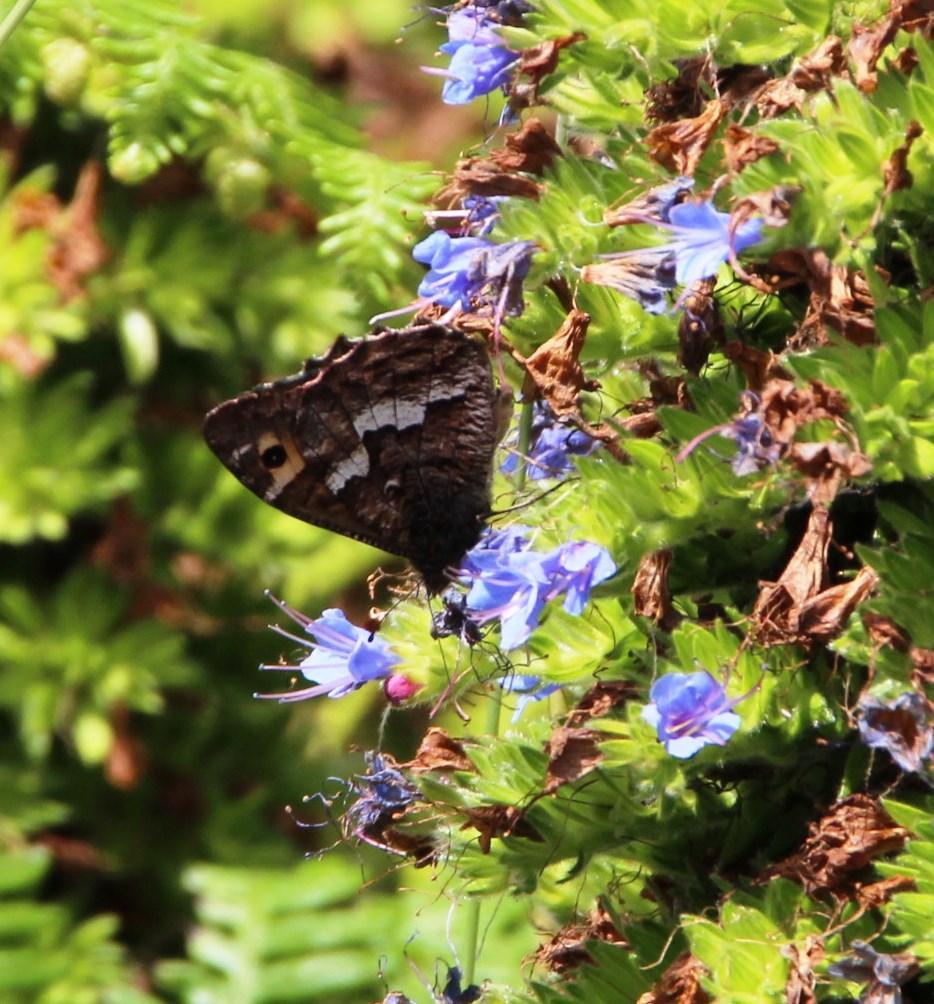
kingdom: Plantae
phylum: Tracheophyta
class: Magnoliopsida
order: Boraginales
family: Boraginaceae
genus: Echium
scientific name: Echium candicans
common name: Pride of madeira
